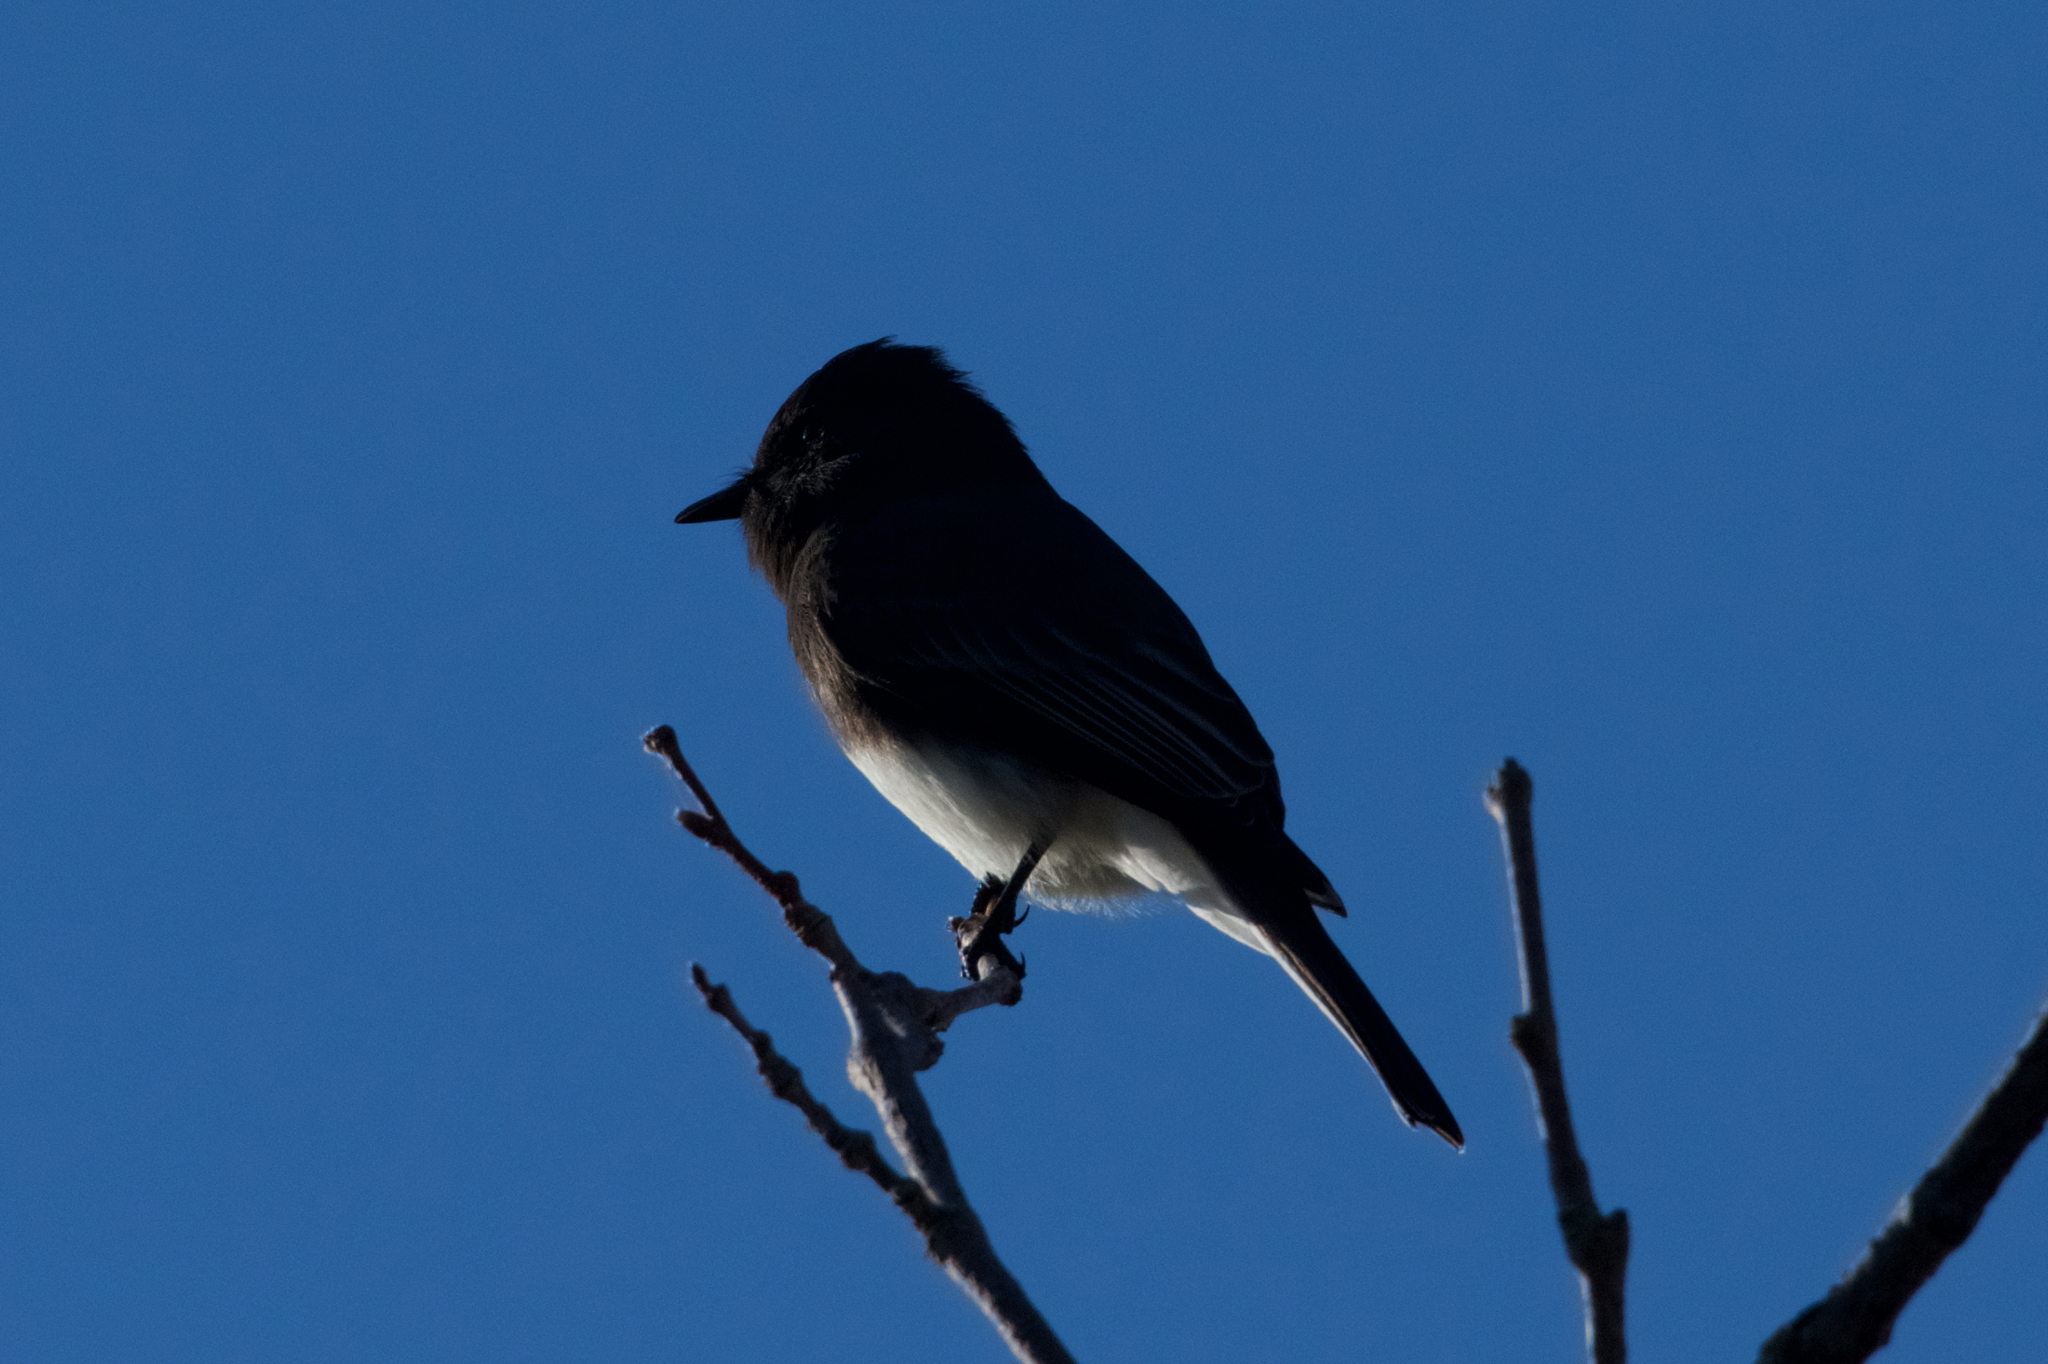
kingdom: Animalia
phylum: Chordata
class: Aves
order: Passeriformes
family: Tyrannidae
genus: Sayornis
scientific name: Sayornis nigricans
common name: Black phoebe
